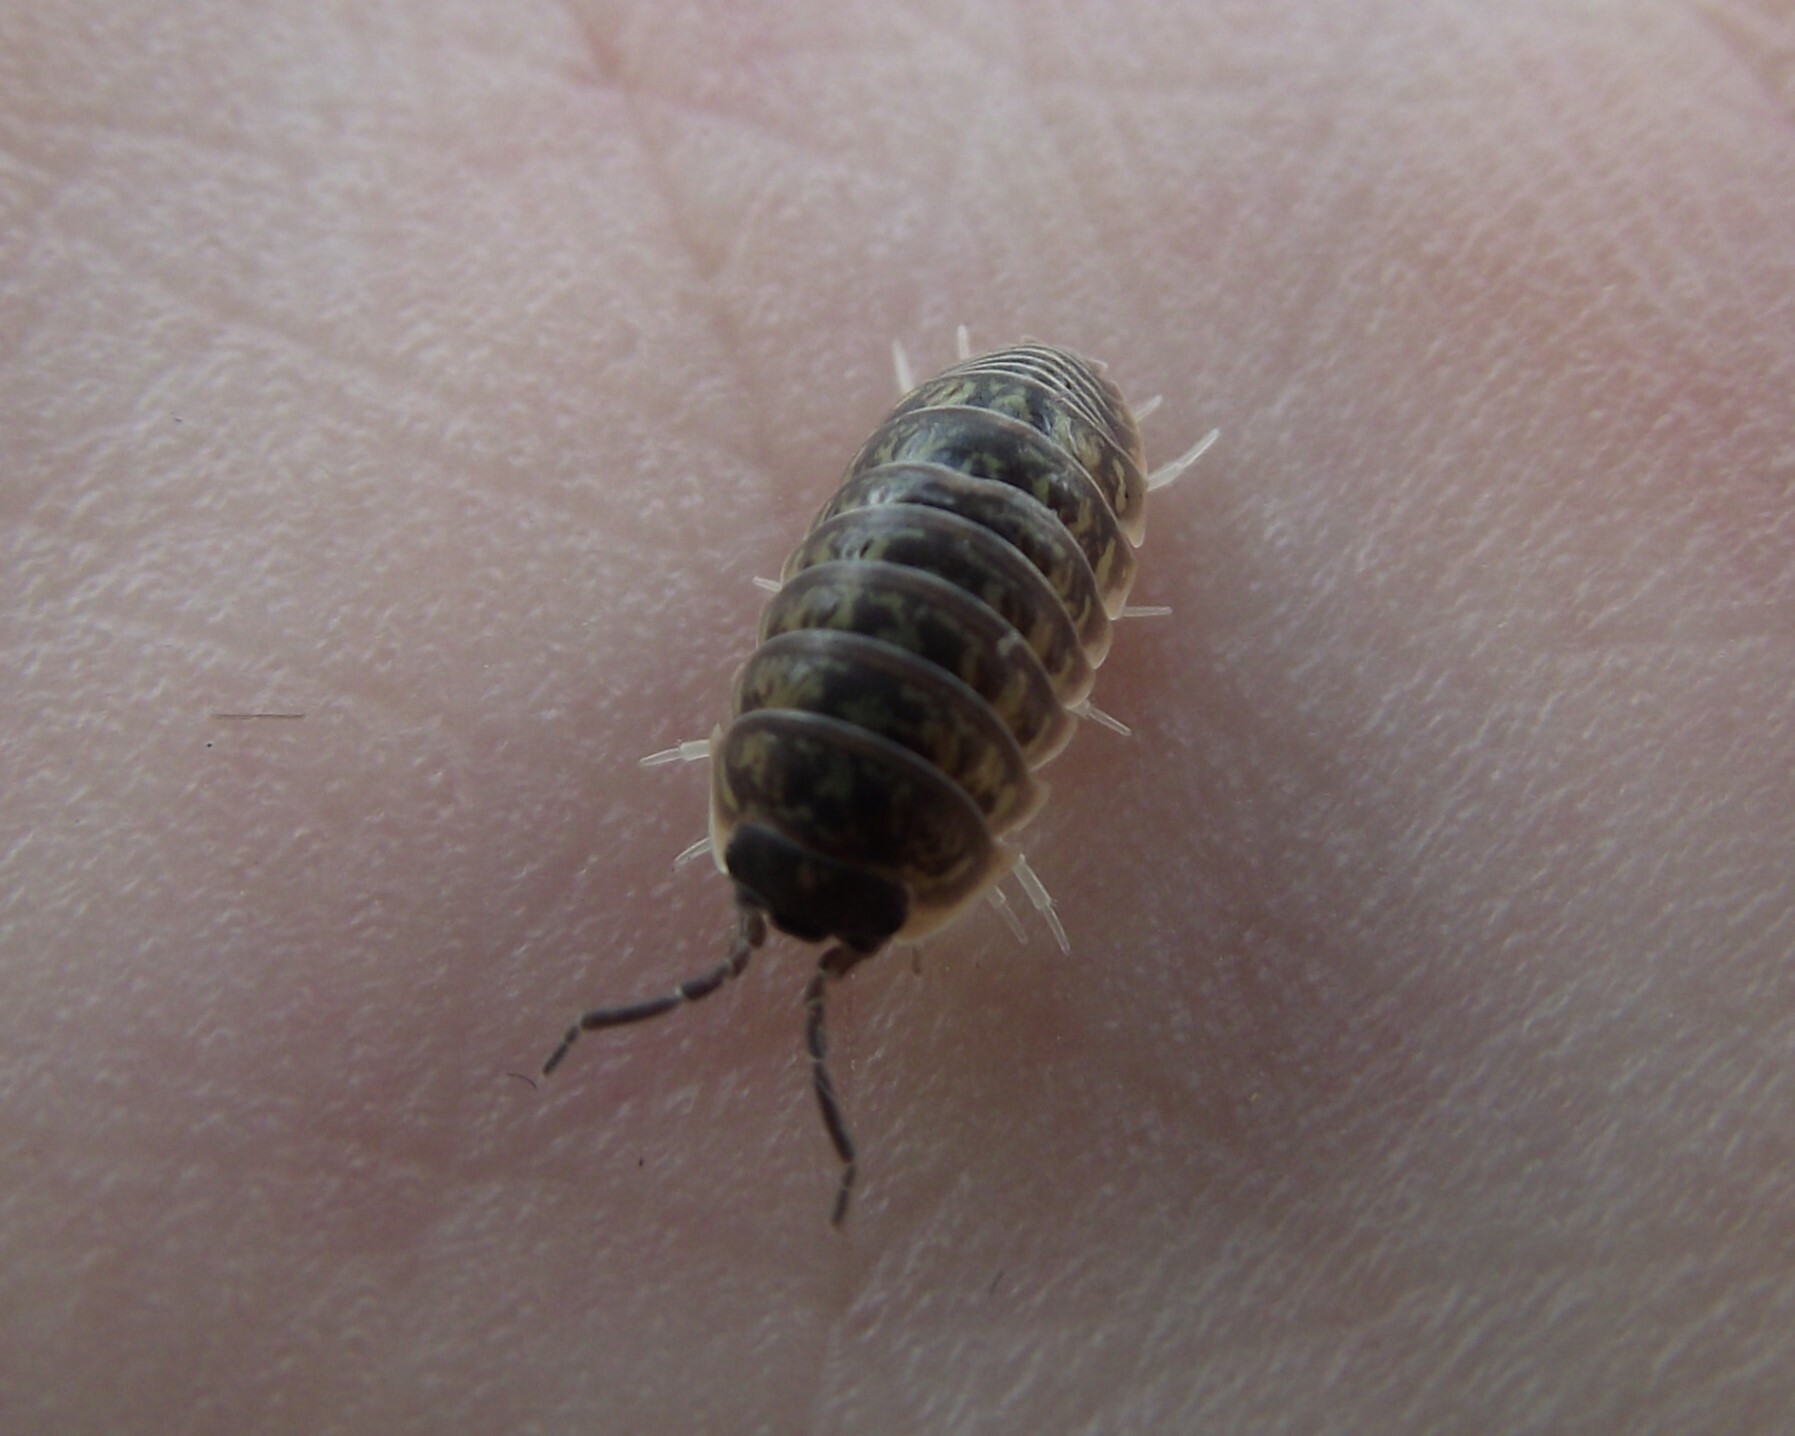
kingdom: Animalia
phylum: Arthropoda
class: Malacostraca
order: Isopoda
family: Armadillidiidae
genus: Armadillidium
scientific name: Armadillidium versicolor
